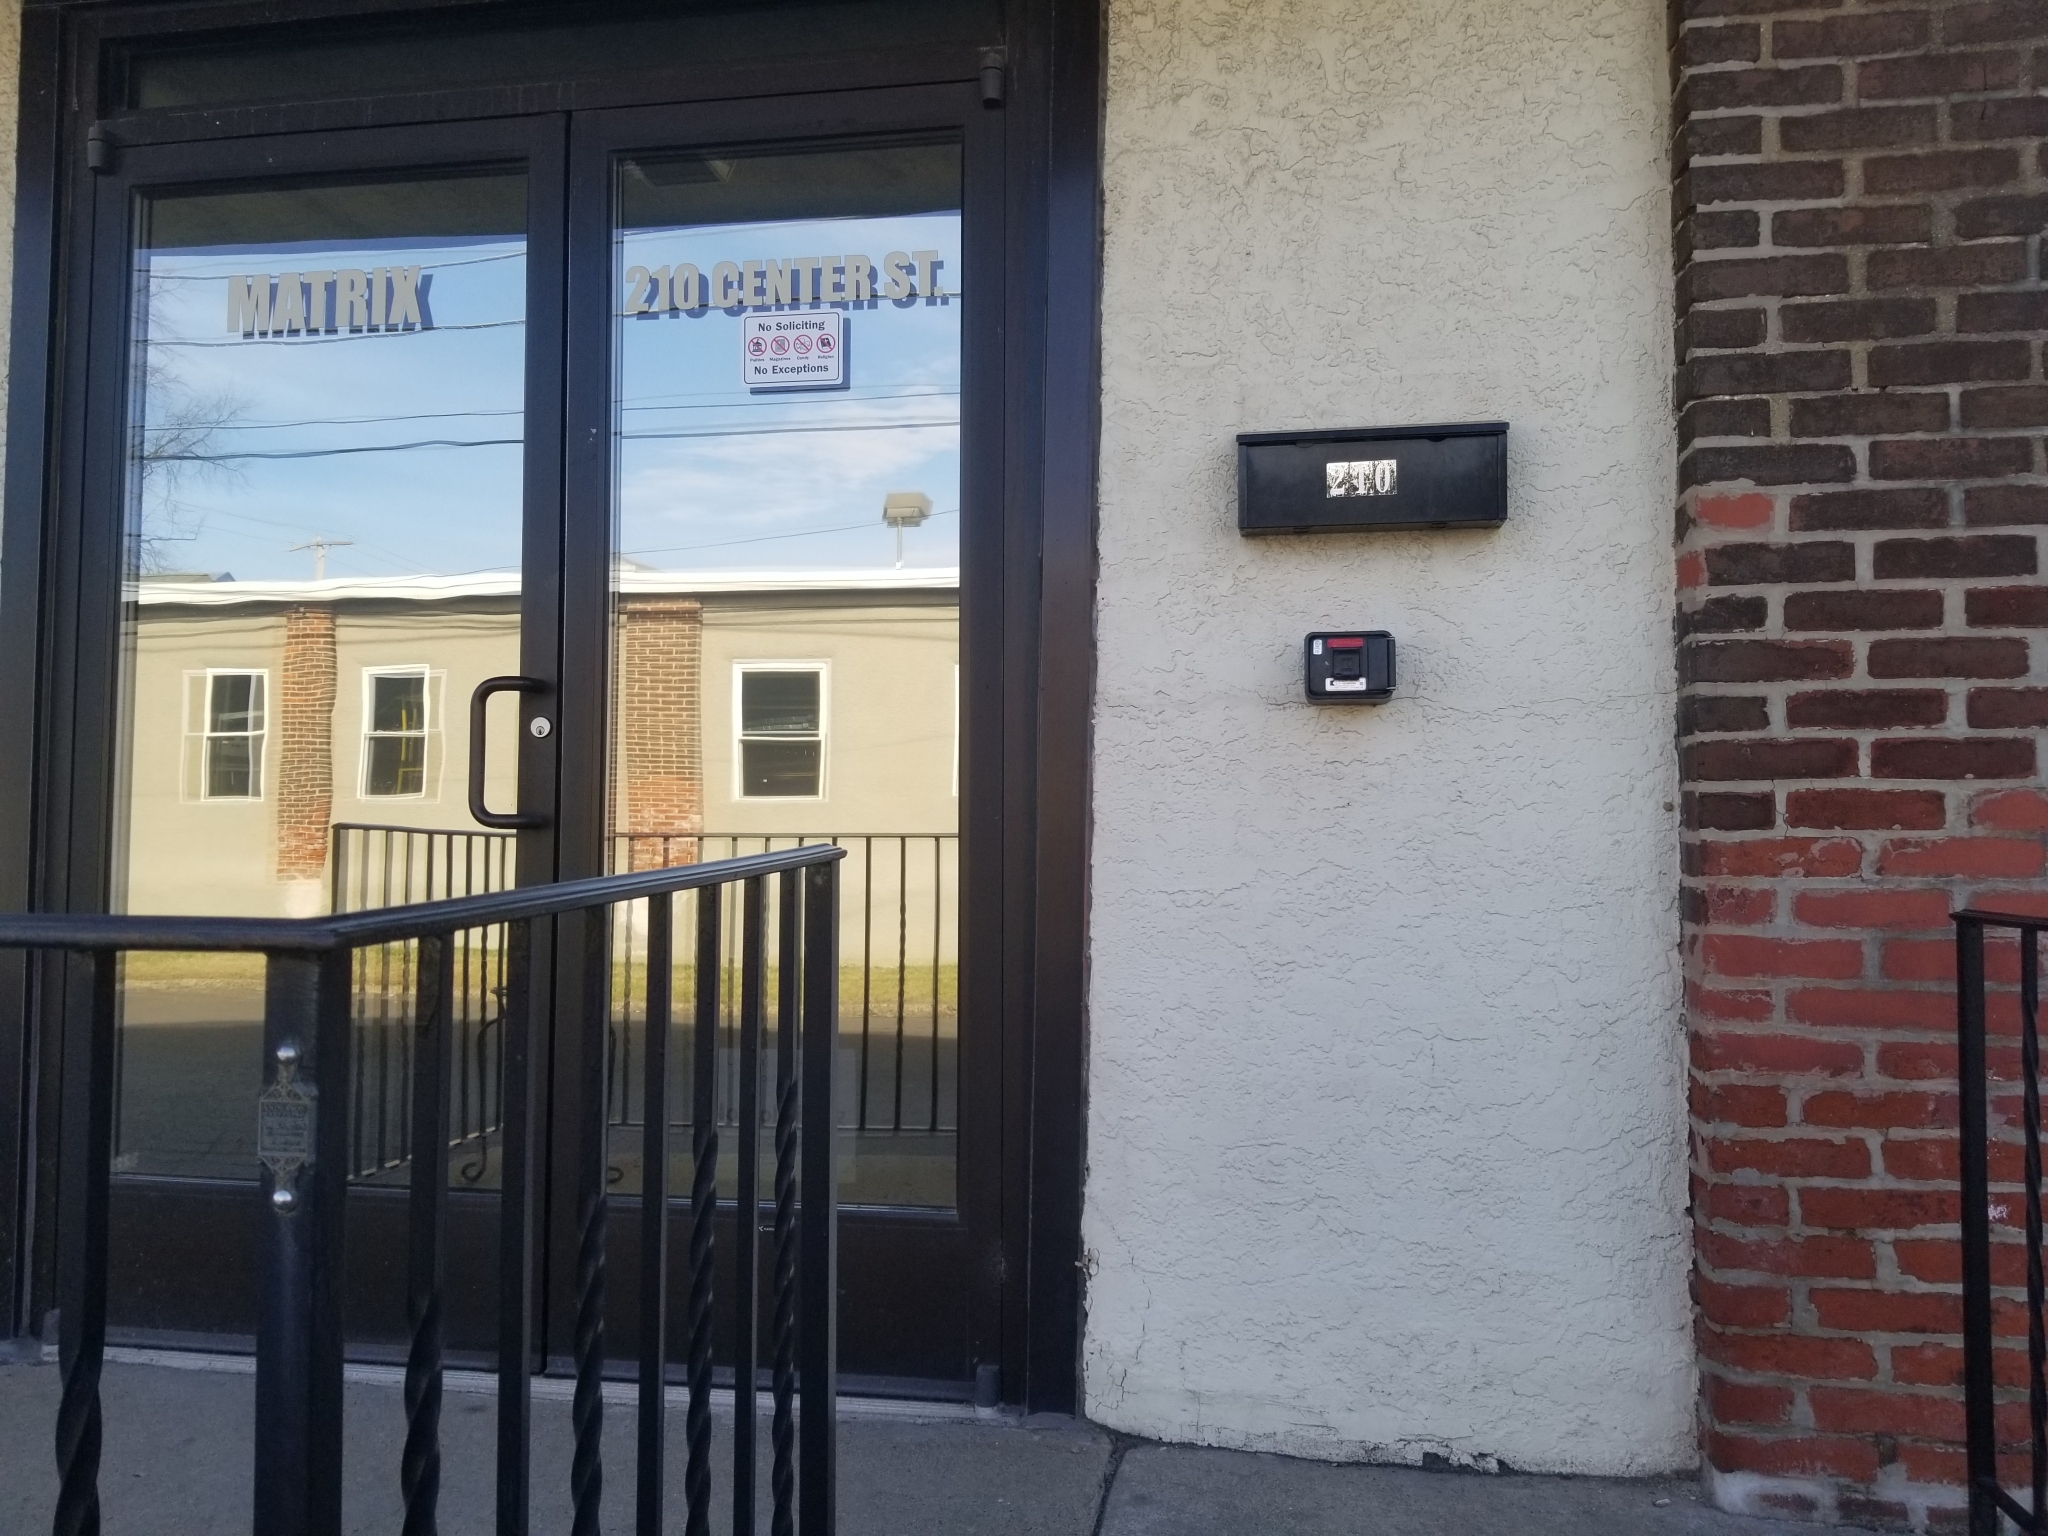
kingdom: Animalia
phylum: Arthropoda
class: Insecta
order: Hymenoptera
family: Vespidae
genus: Eumenes
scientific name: Eumenes
